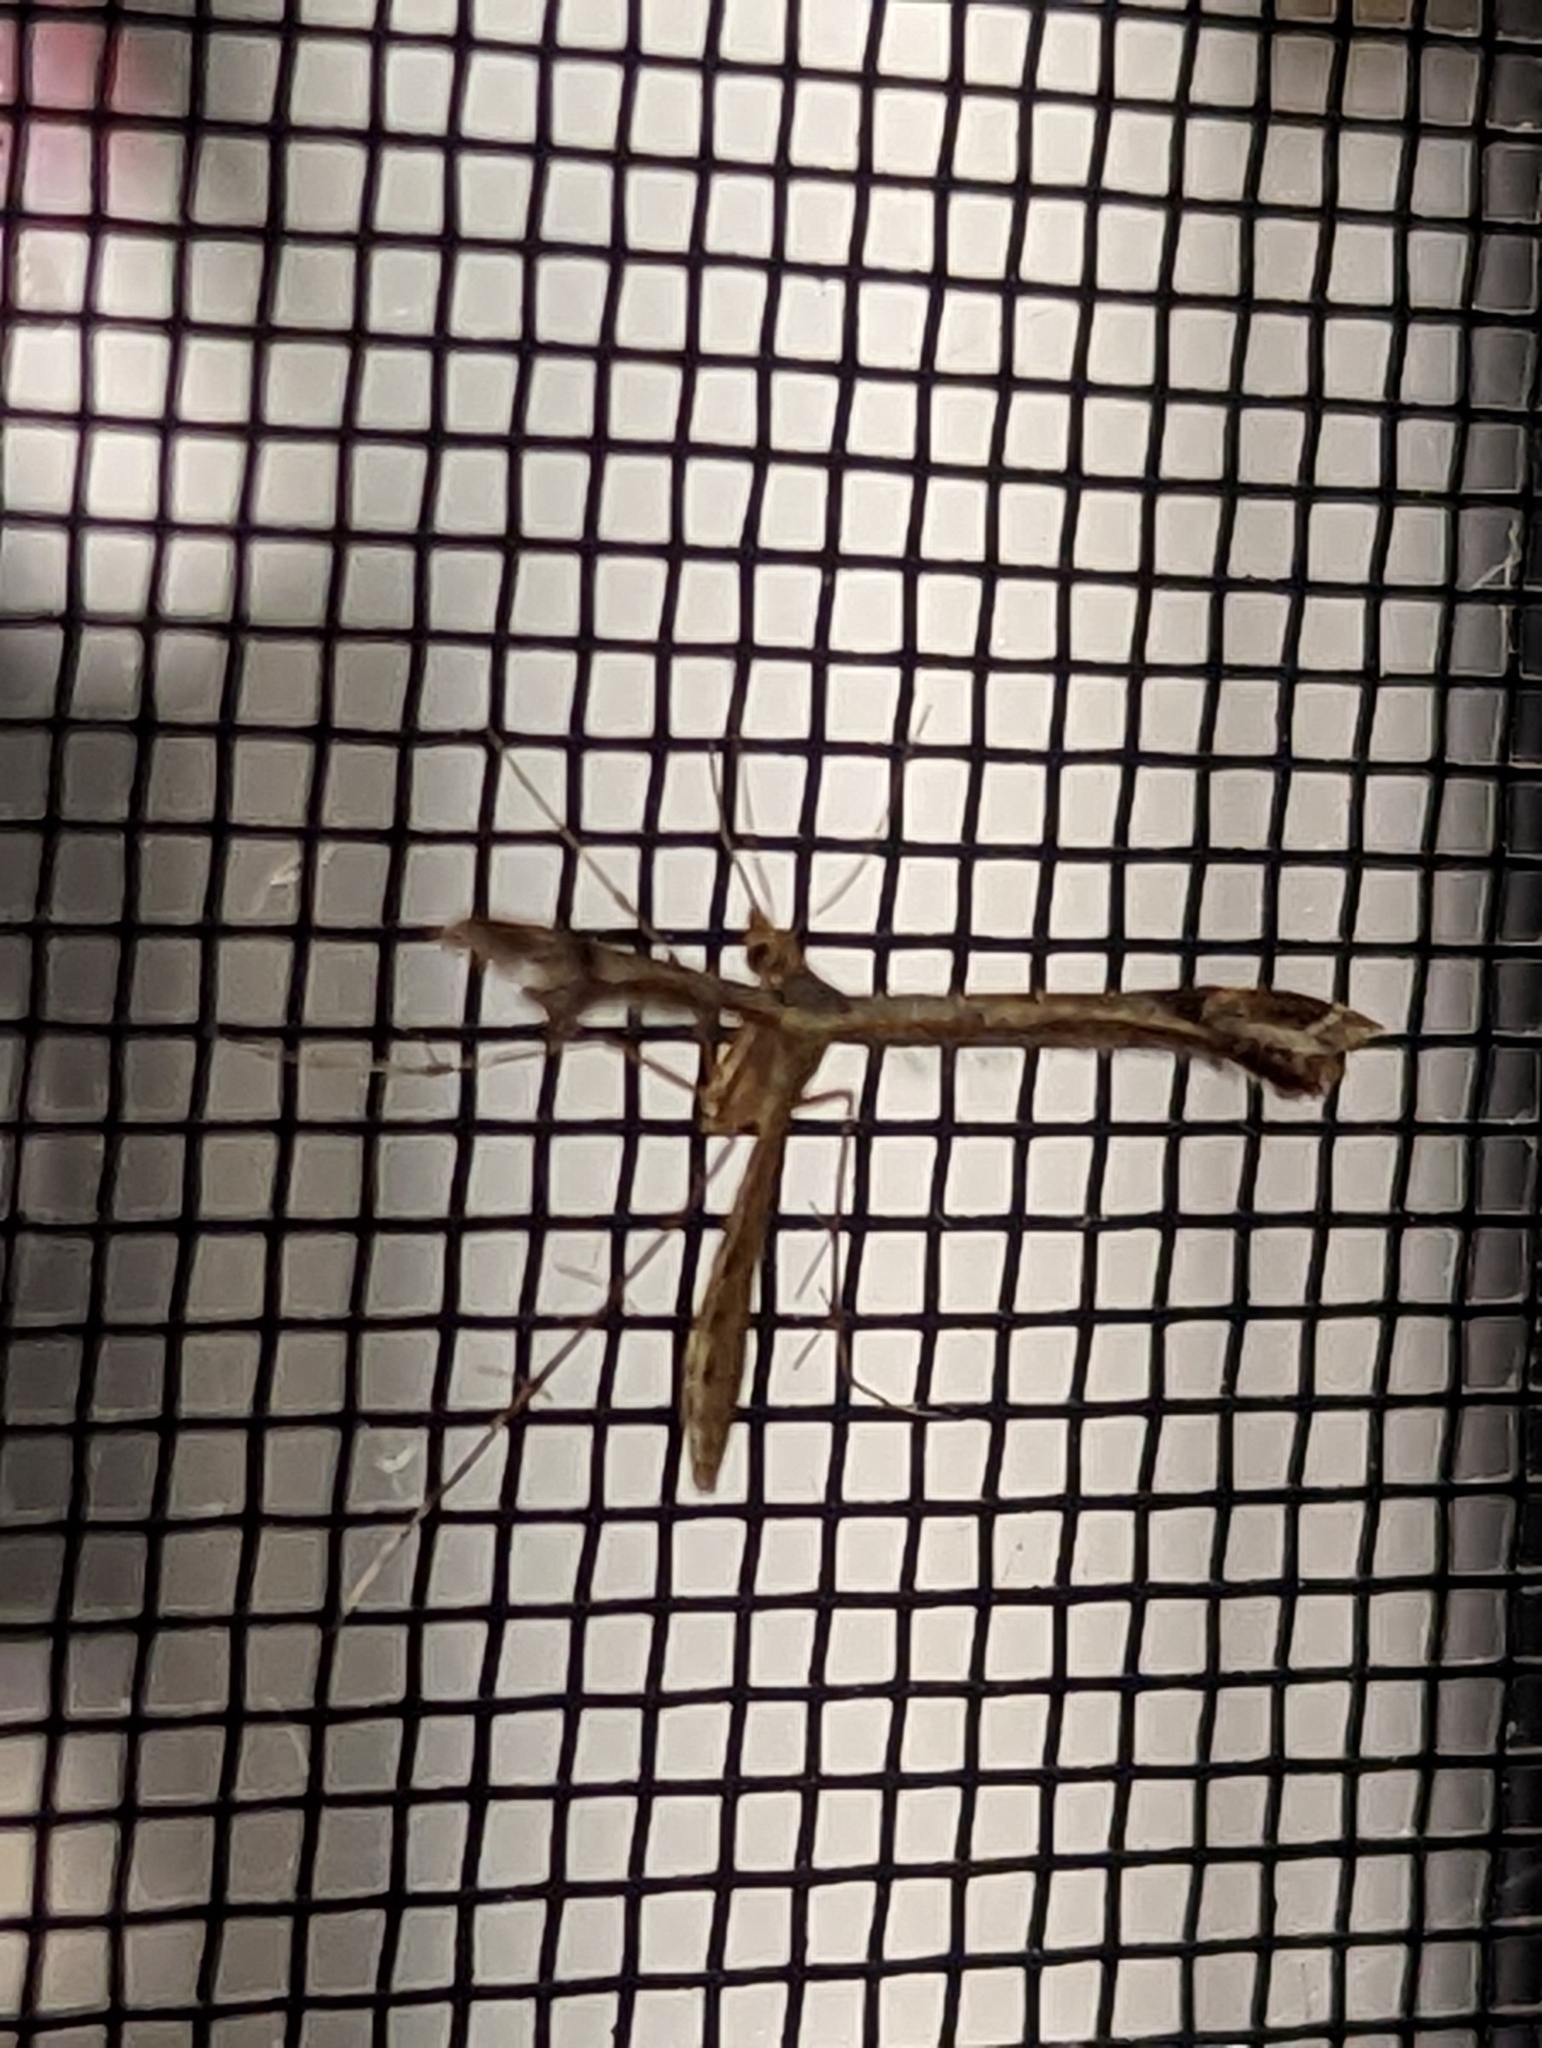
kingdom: Animalia
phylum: Arthropoda
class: Insecta
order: Lepidoptera
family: Pterophoridae
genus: Sinpunctiptilia
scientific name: Sinpunctiptilia emissalis
